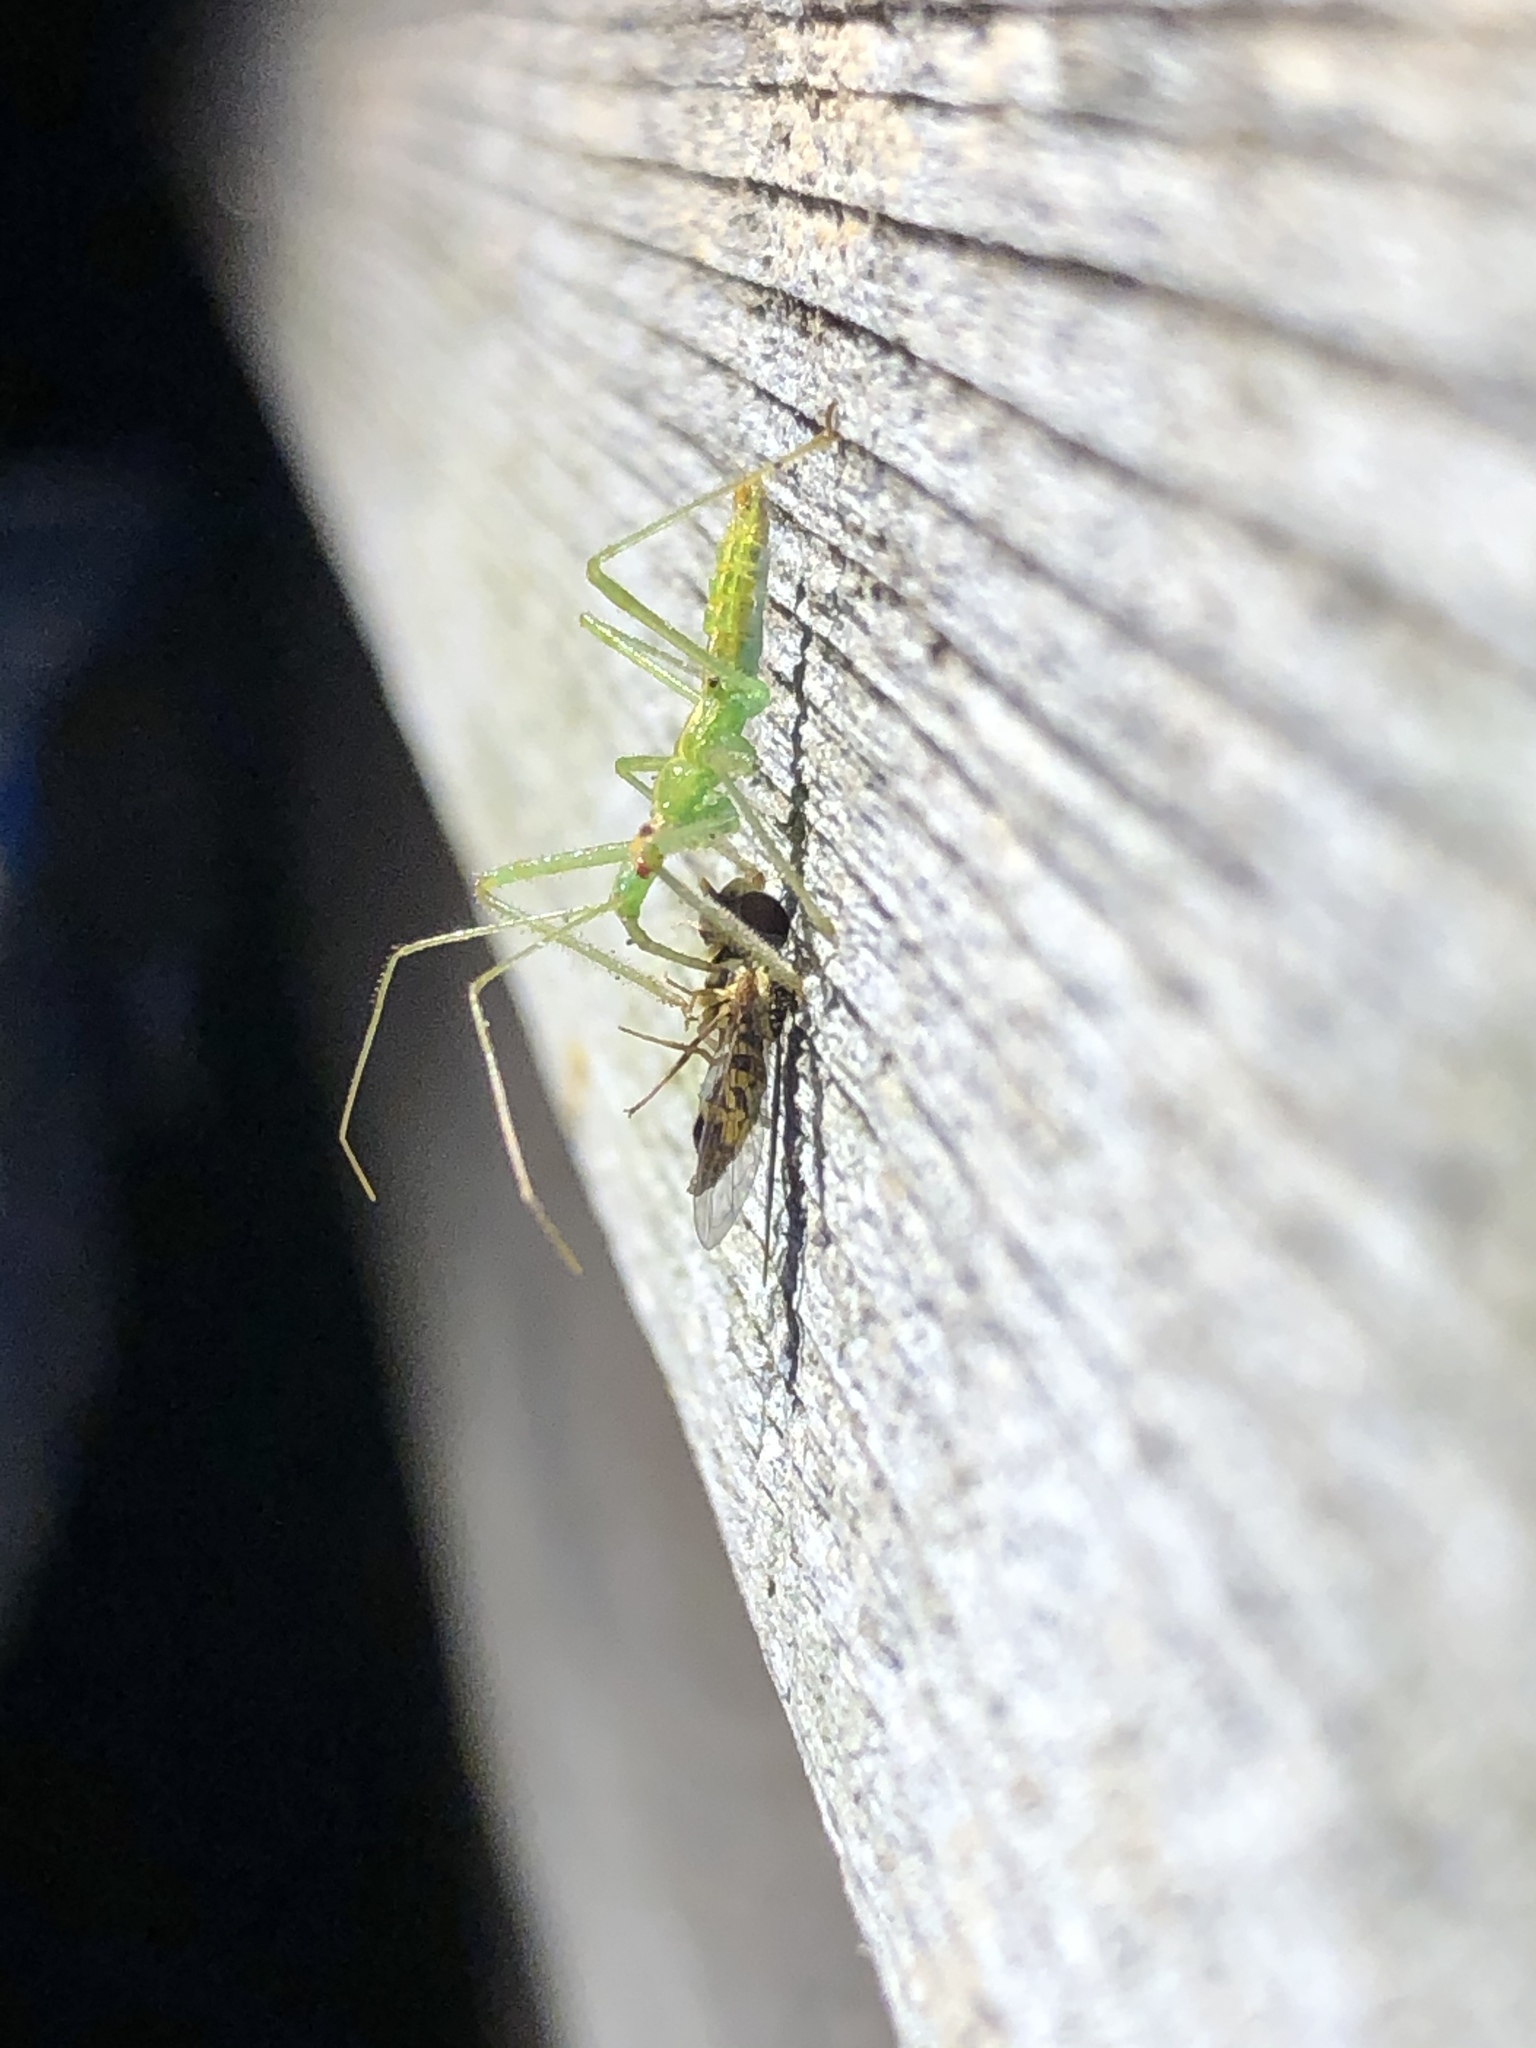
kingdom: Animalia
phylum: Arthropoda
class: Insecta
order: Hemiptera
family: Reduviidae
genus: Zelus
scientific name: Zelus luridus
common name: Pale green assassin bug
